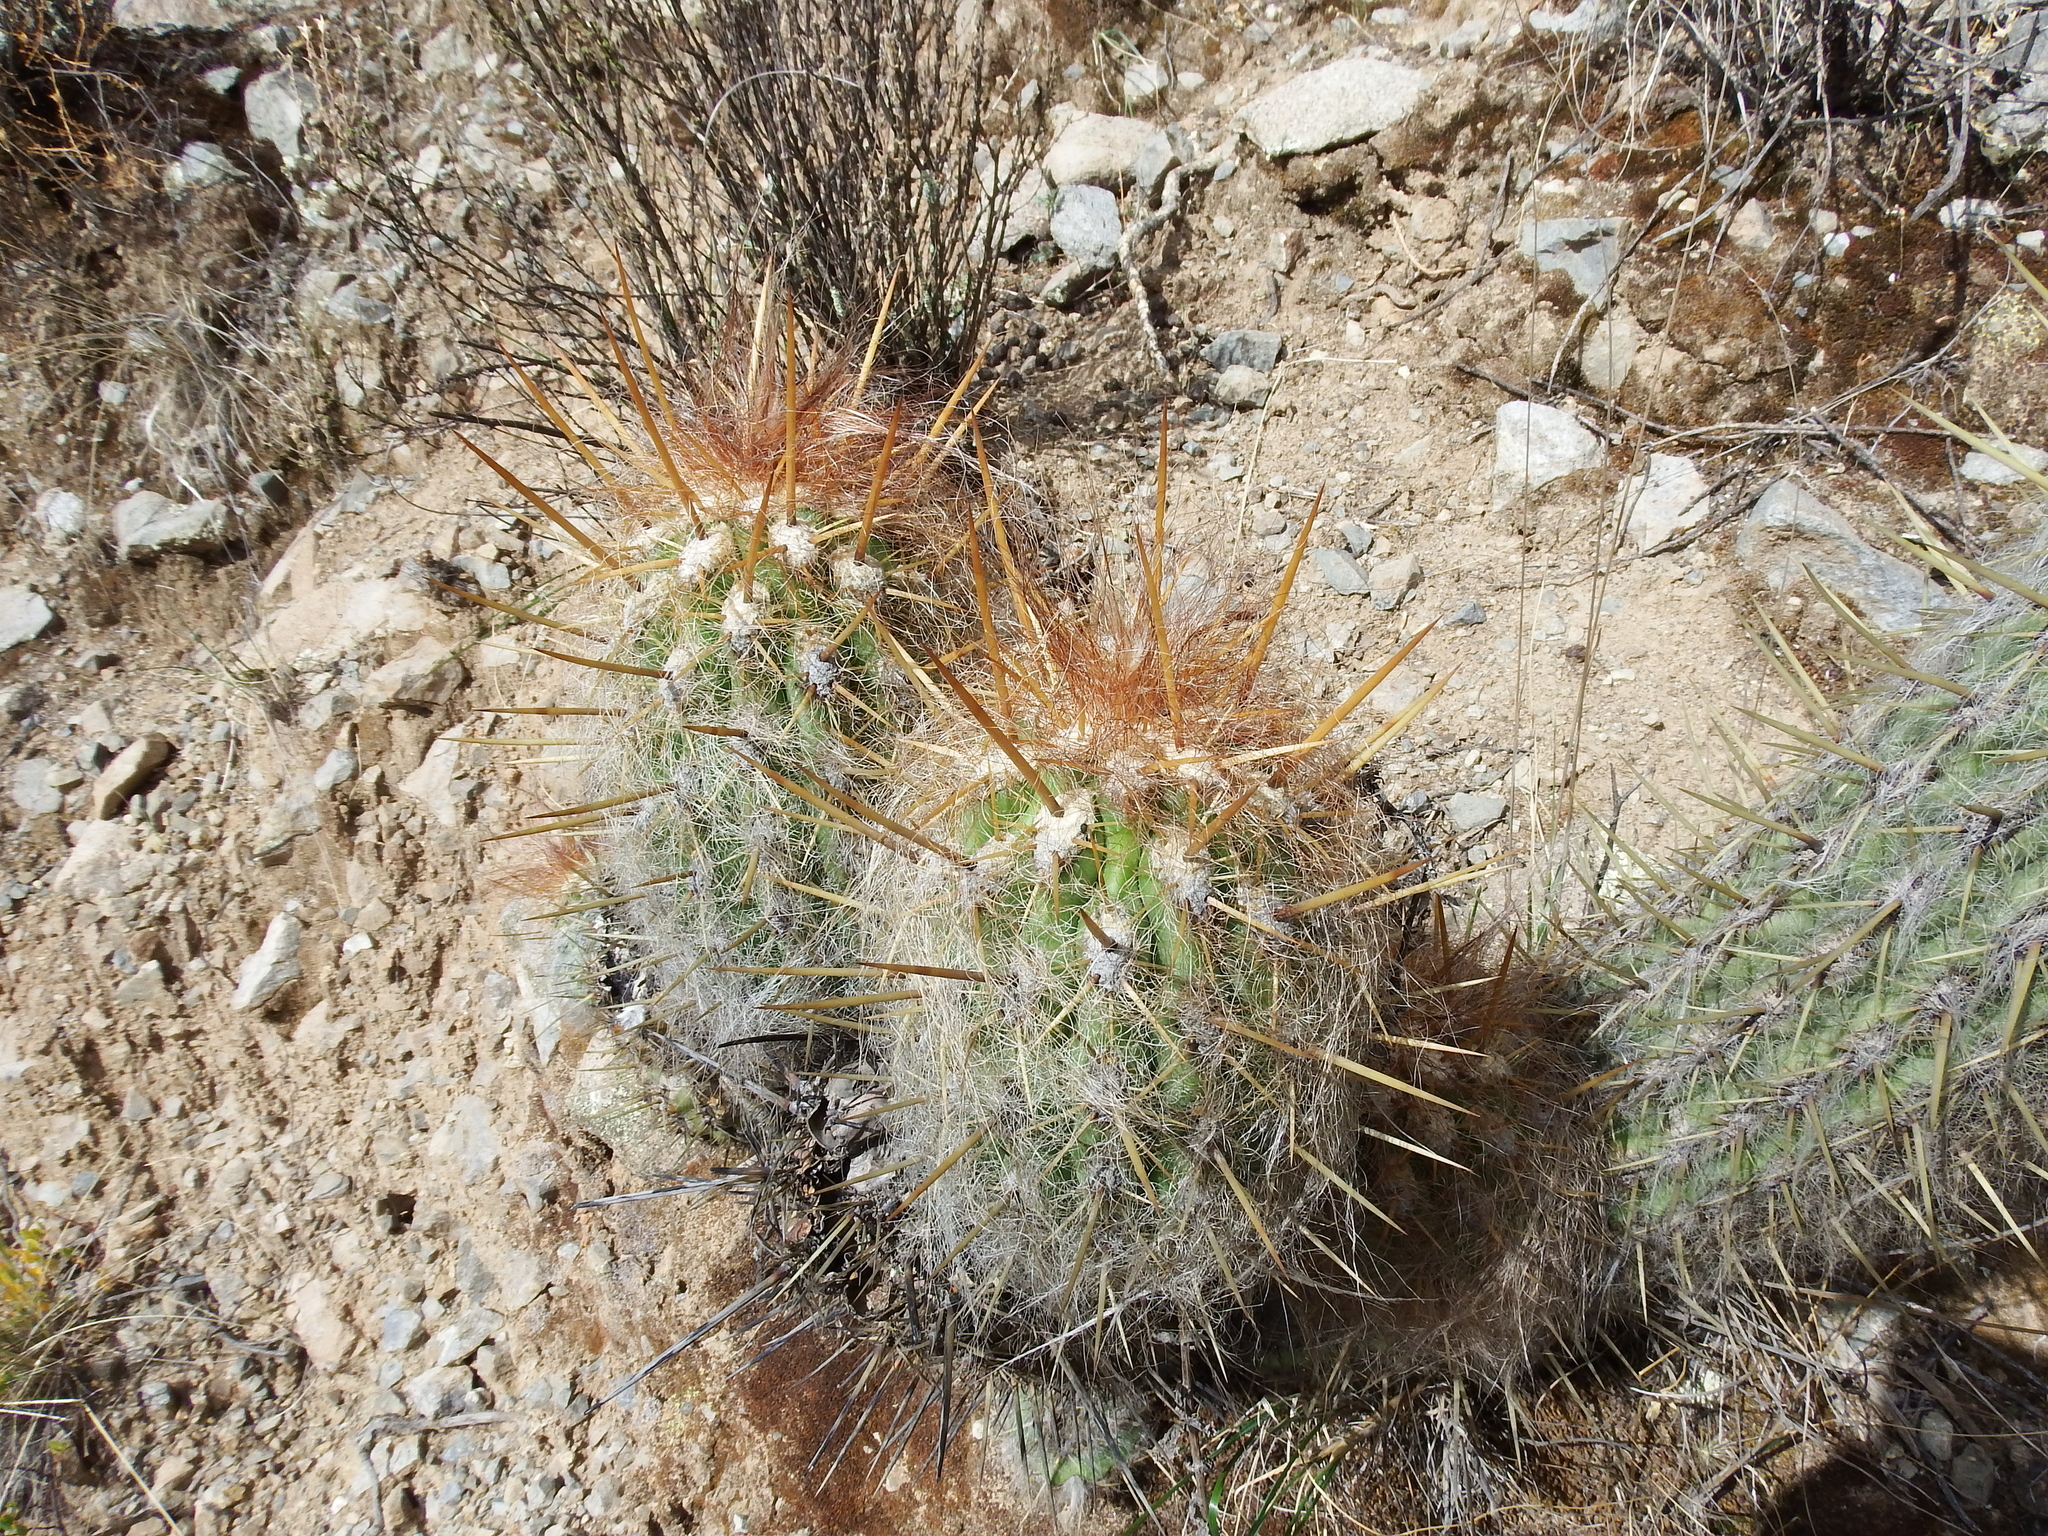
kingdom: Plantae
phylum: Tracheophyta
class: Magnoliopsida
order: Caryophyllales
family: Cactaceae
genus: Oreocereus
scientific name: Oreocereus leucotrichus
